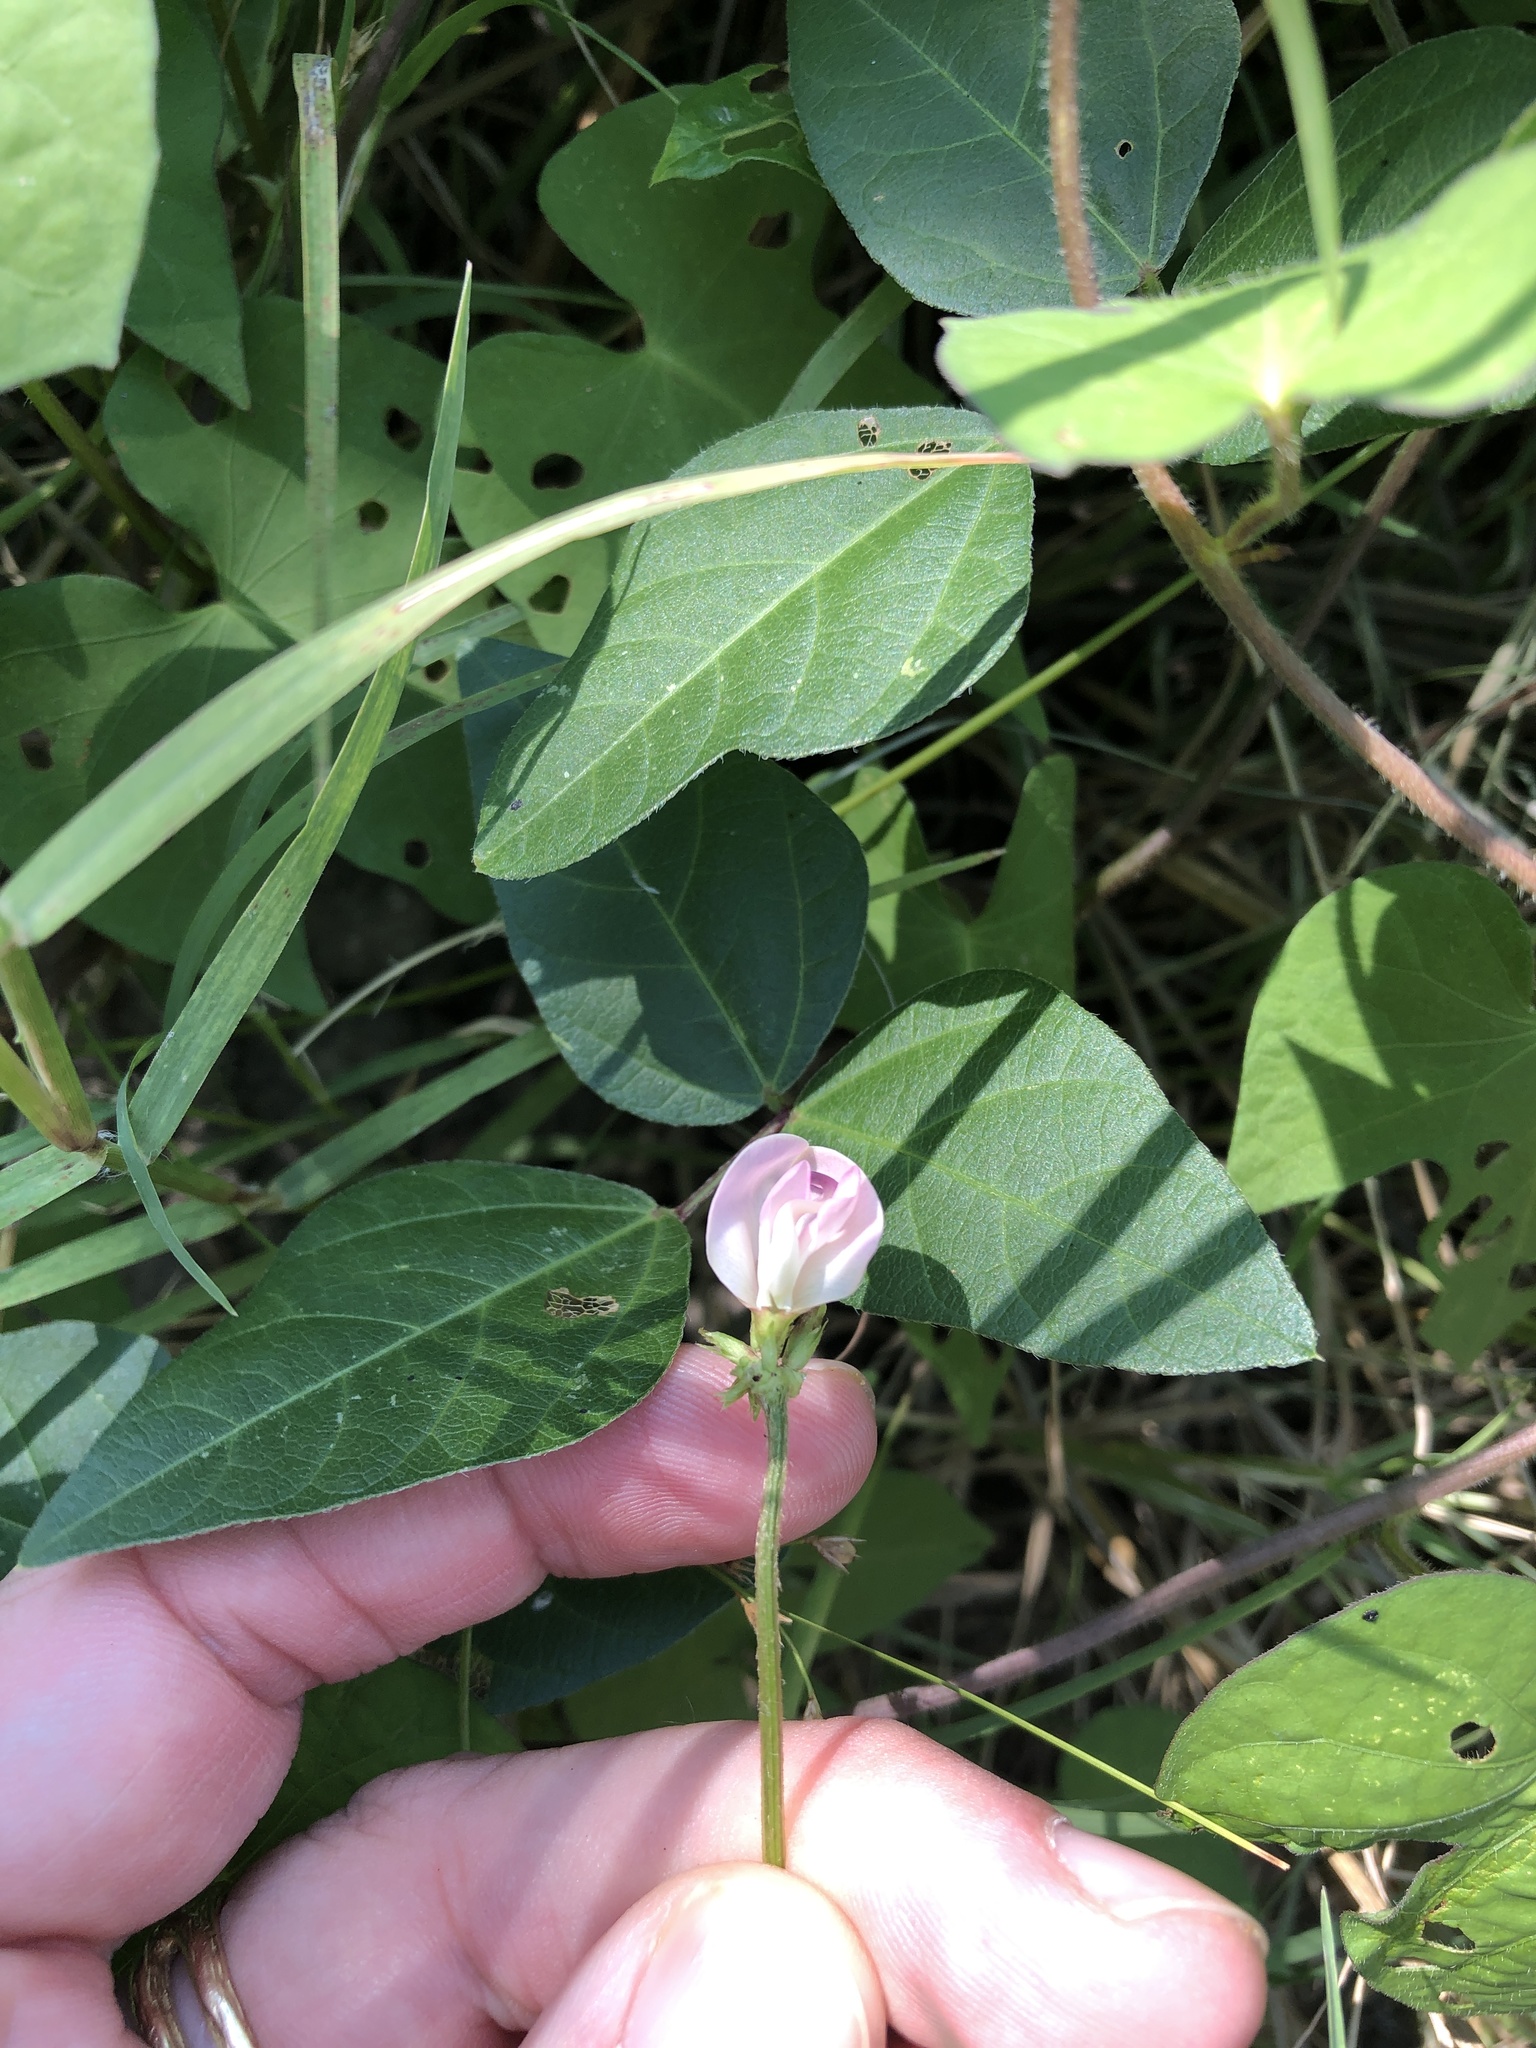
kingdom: Plantae
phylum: Tracheophyta
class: Magnoliopsida
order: Fabales
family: Fabaceae
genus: Strophostyles
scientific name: Strophostyles helvola
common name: Trailing wild bean
